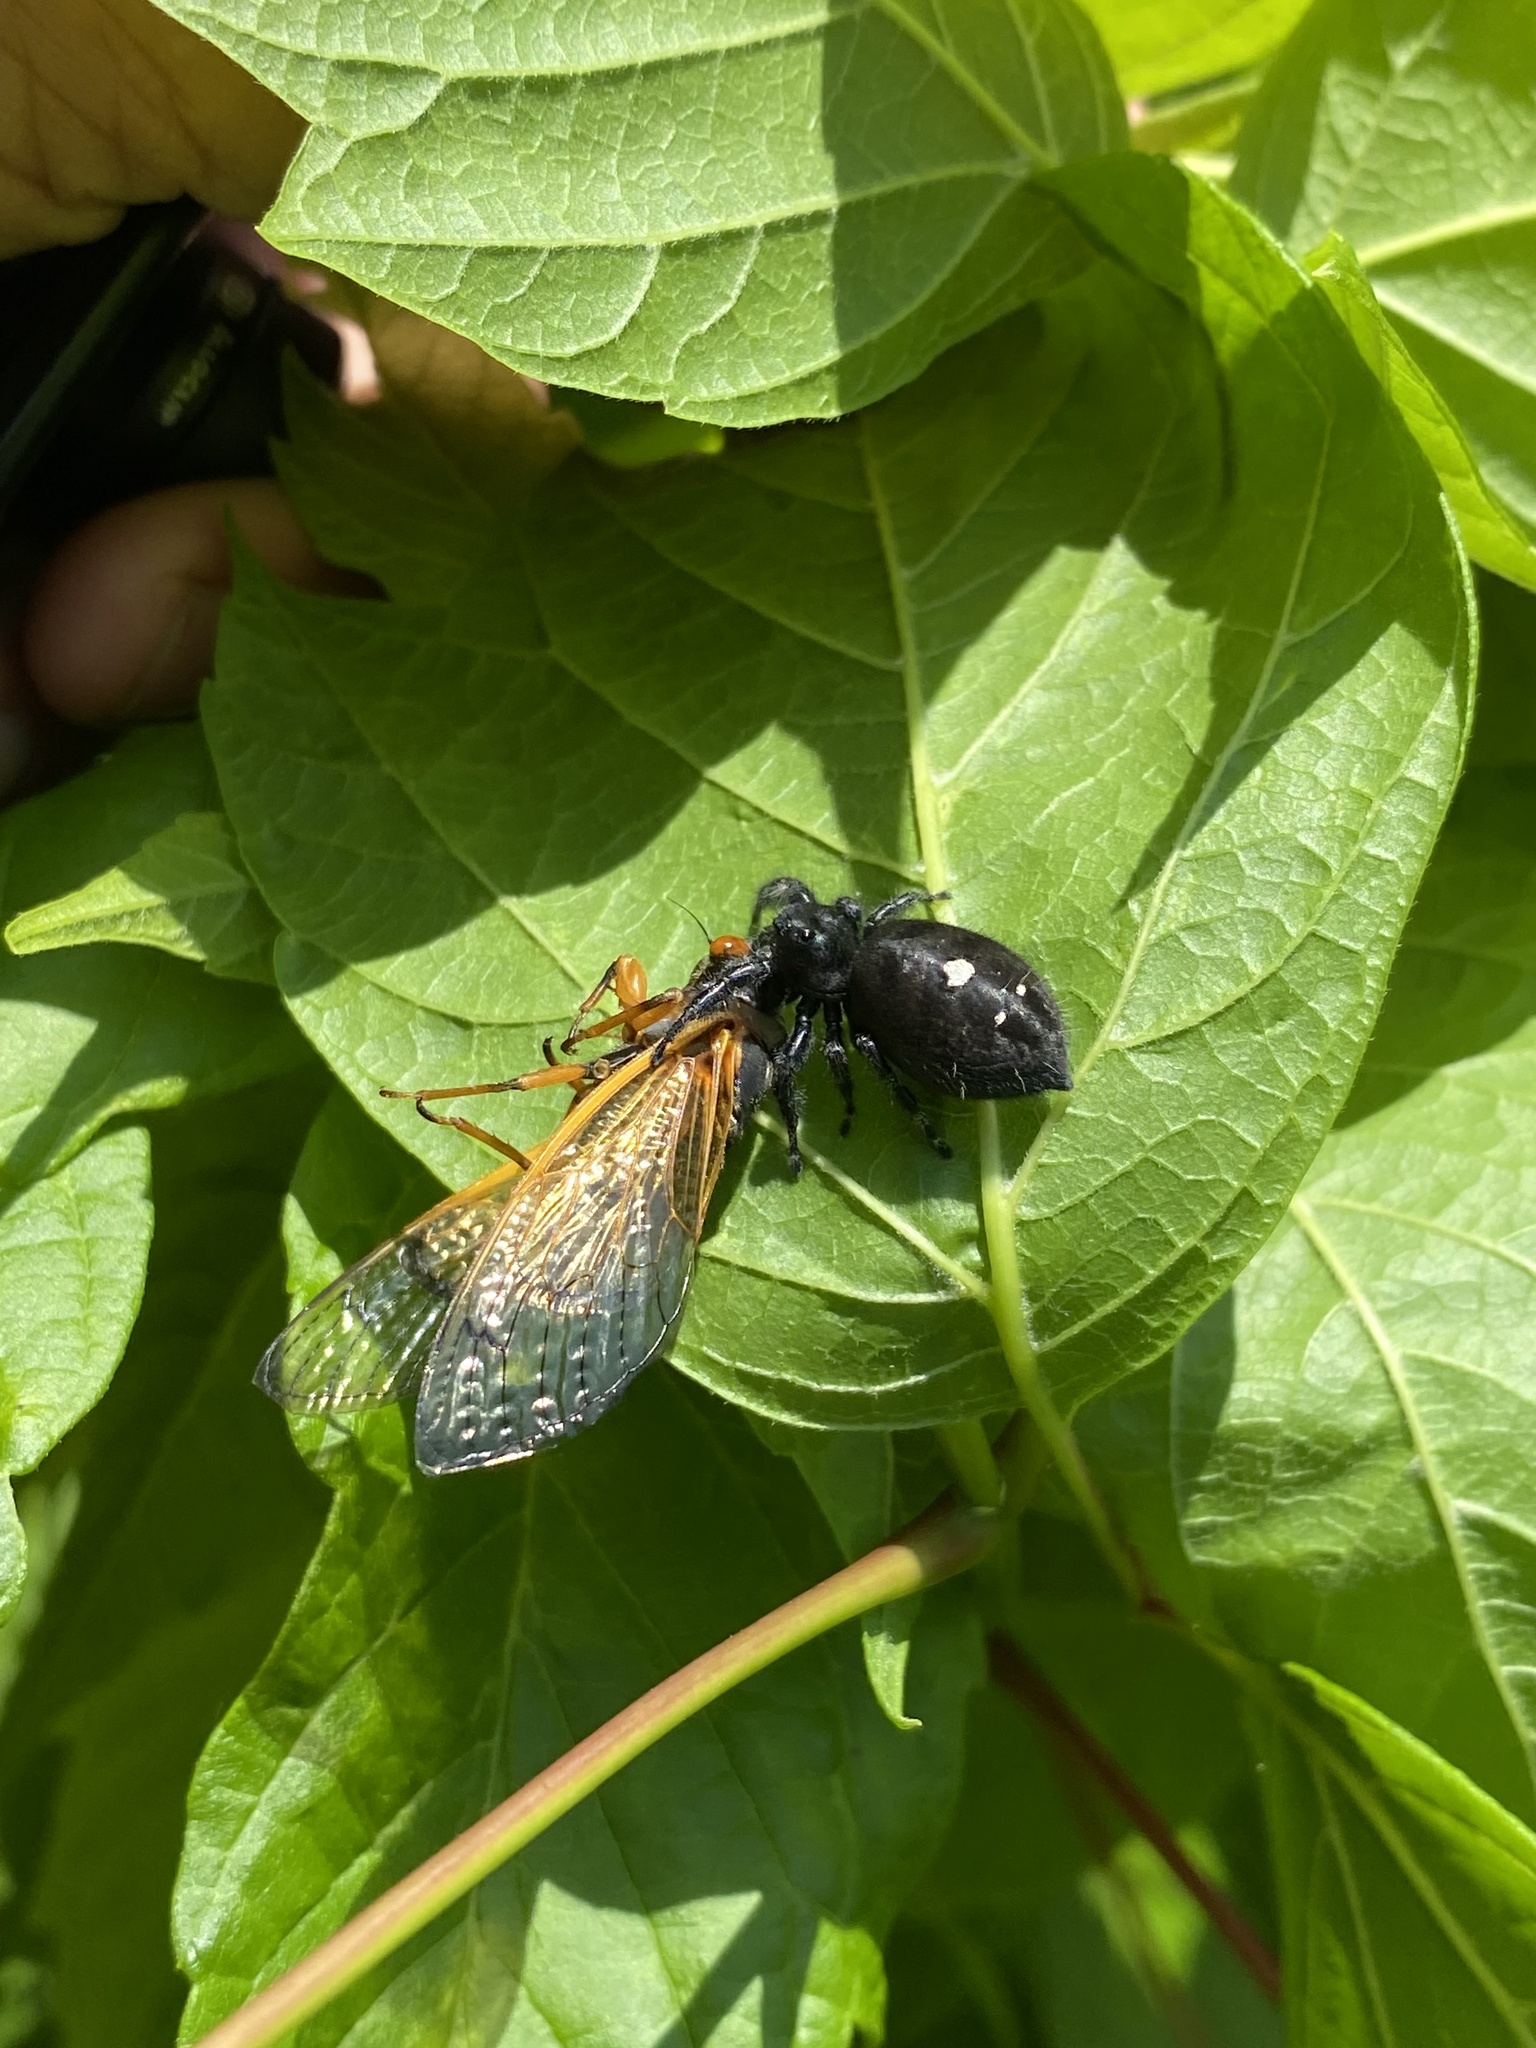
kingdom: Animalia
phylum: Arthropoda
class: Arachnida
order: Araneae
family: Salticidae
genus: Phidippus
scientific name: Phidippus audax
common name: Bold jumper
